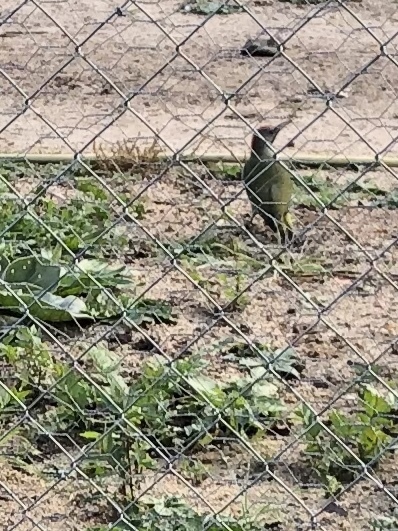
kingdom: Animalia
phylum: Chordata
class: Aves
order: Piciformes
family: Picidae
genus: Picus
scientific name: Picus sharpei
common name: Iberian green woodpecker
